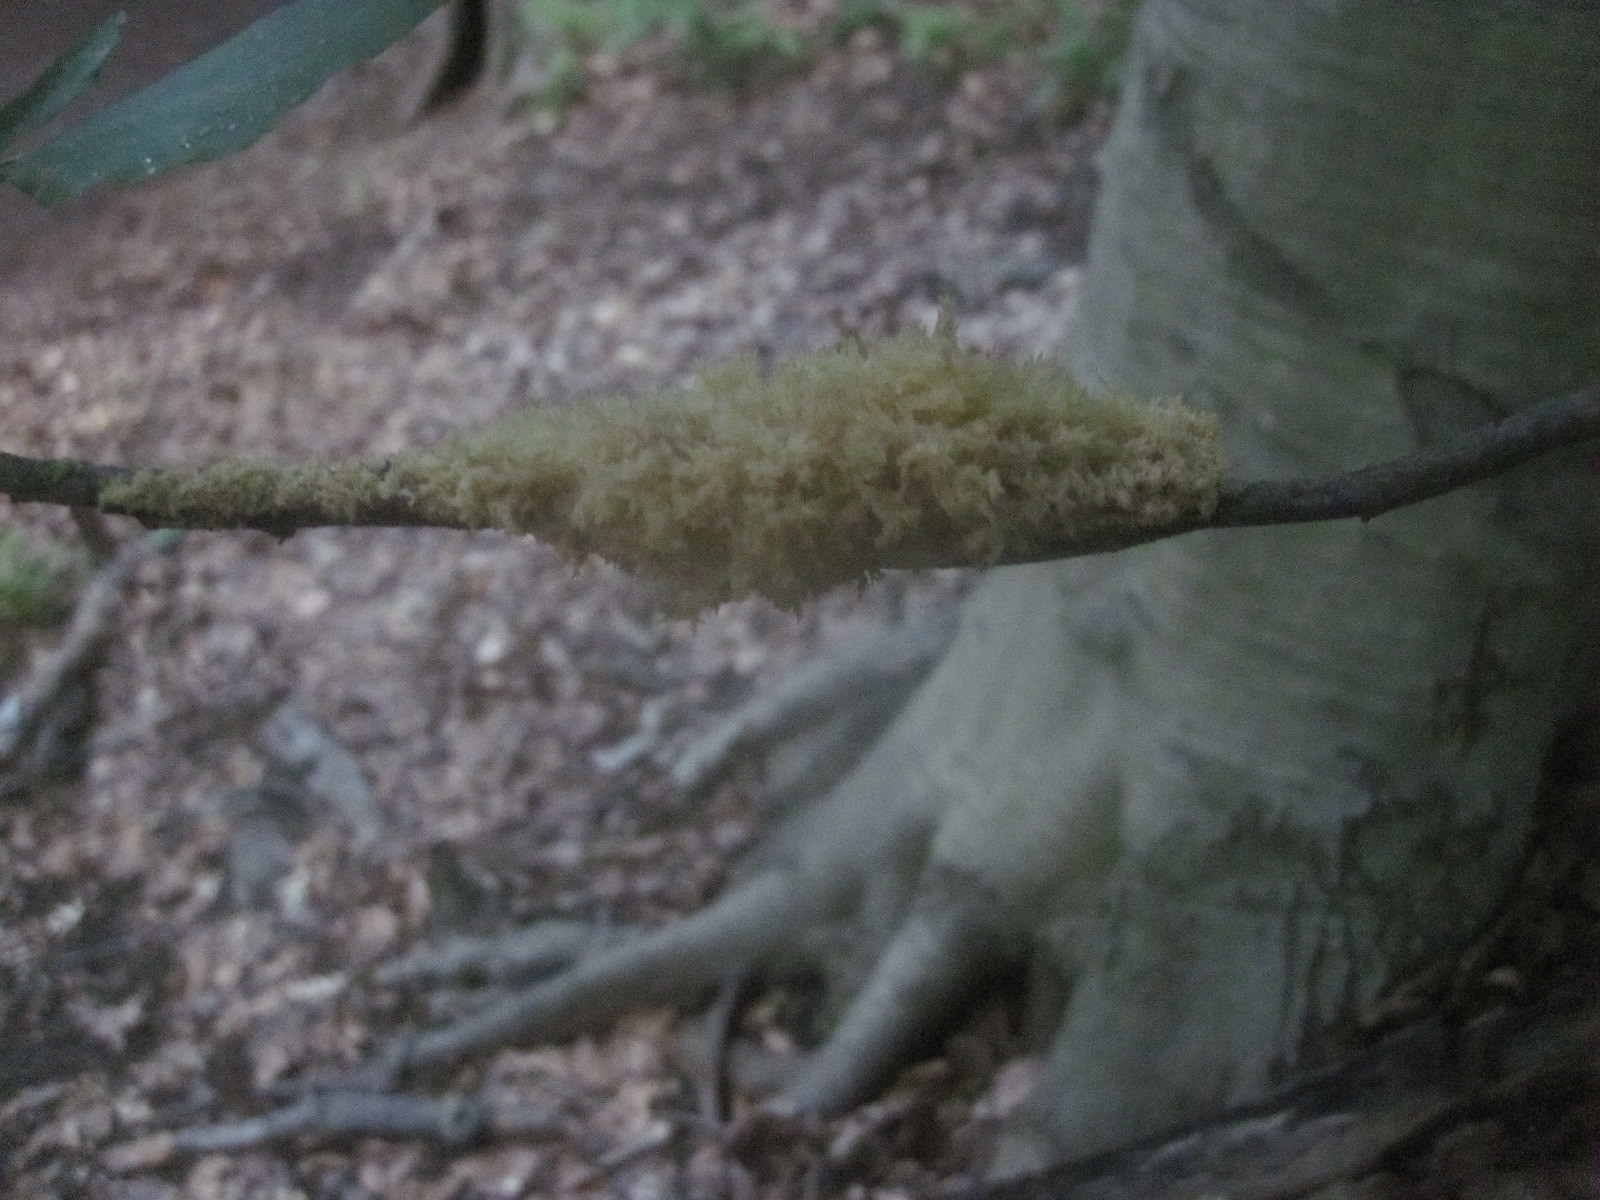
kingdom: Fungi
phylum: Ascomycota
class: Dothideomycetes
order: Capnodiales
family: Capnodiaceae
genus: Scorias
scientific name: Scorias spongiosa
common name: Black sooty mold
